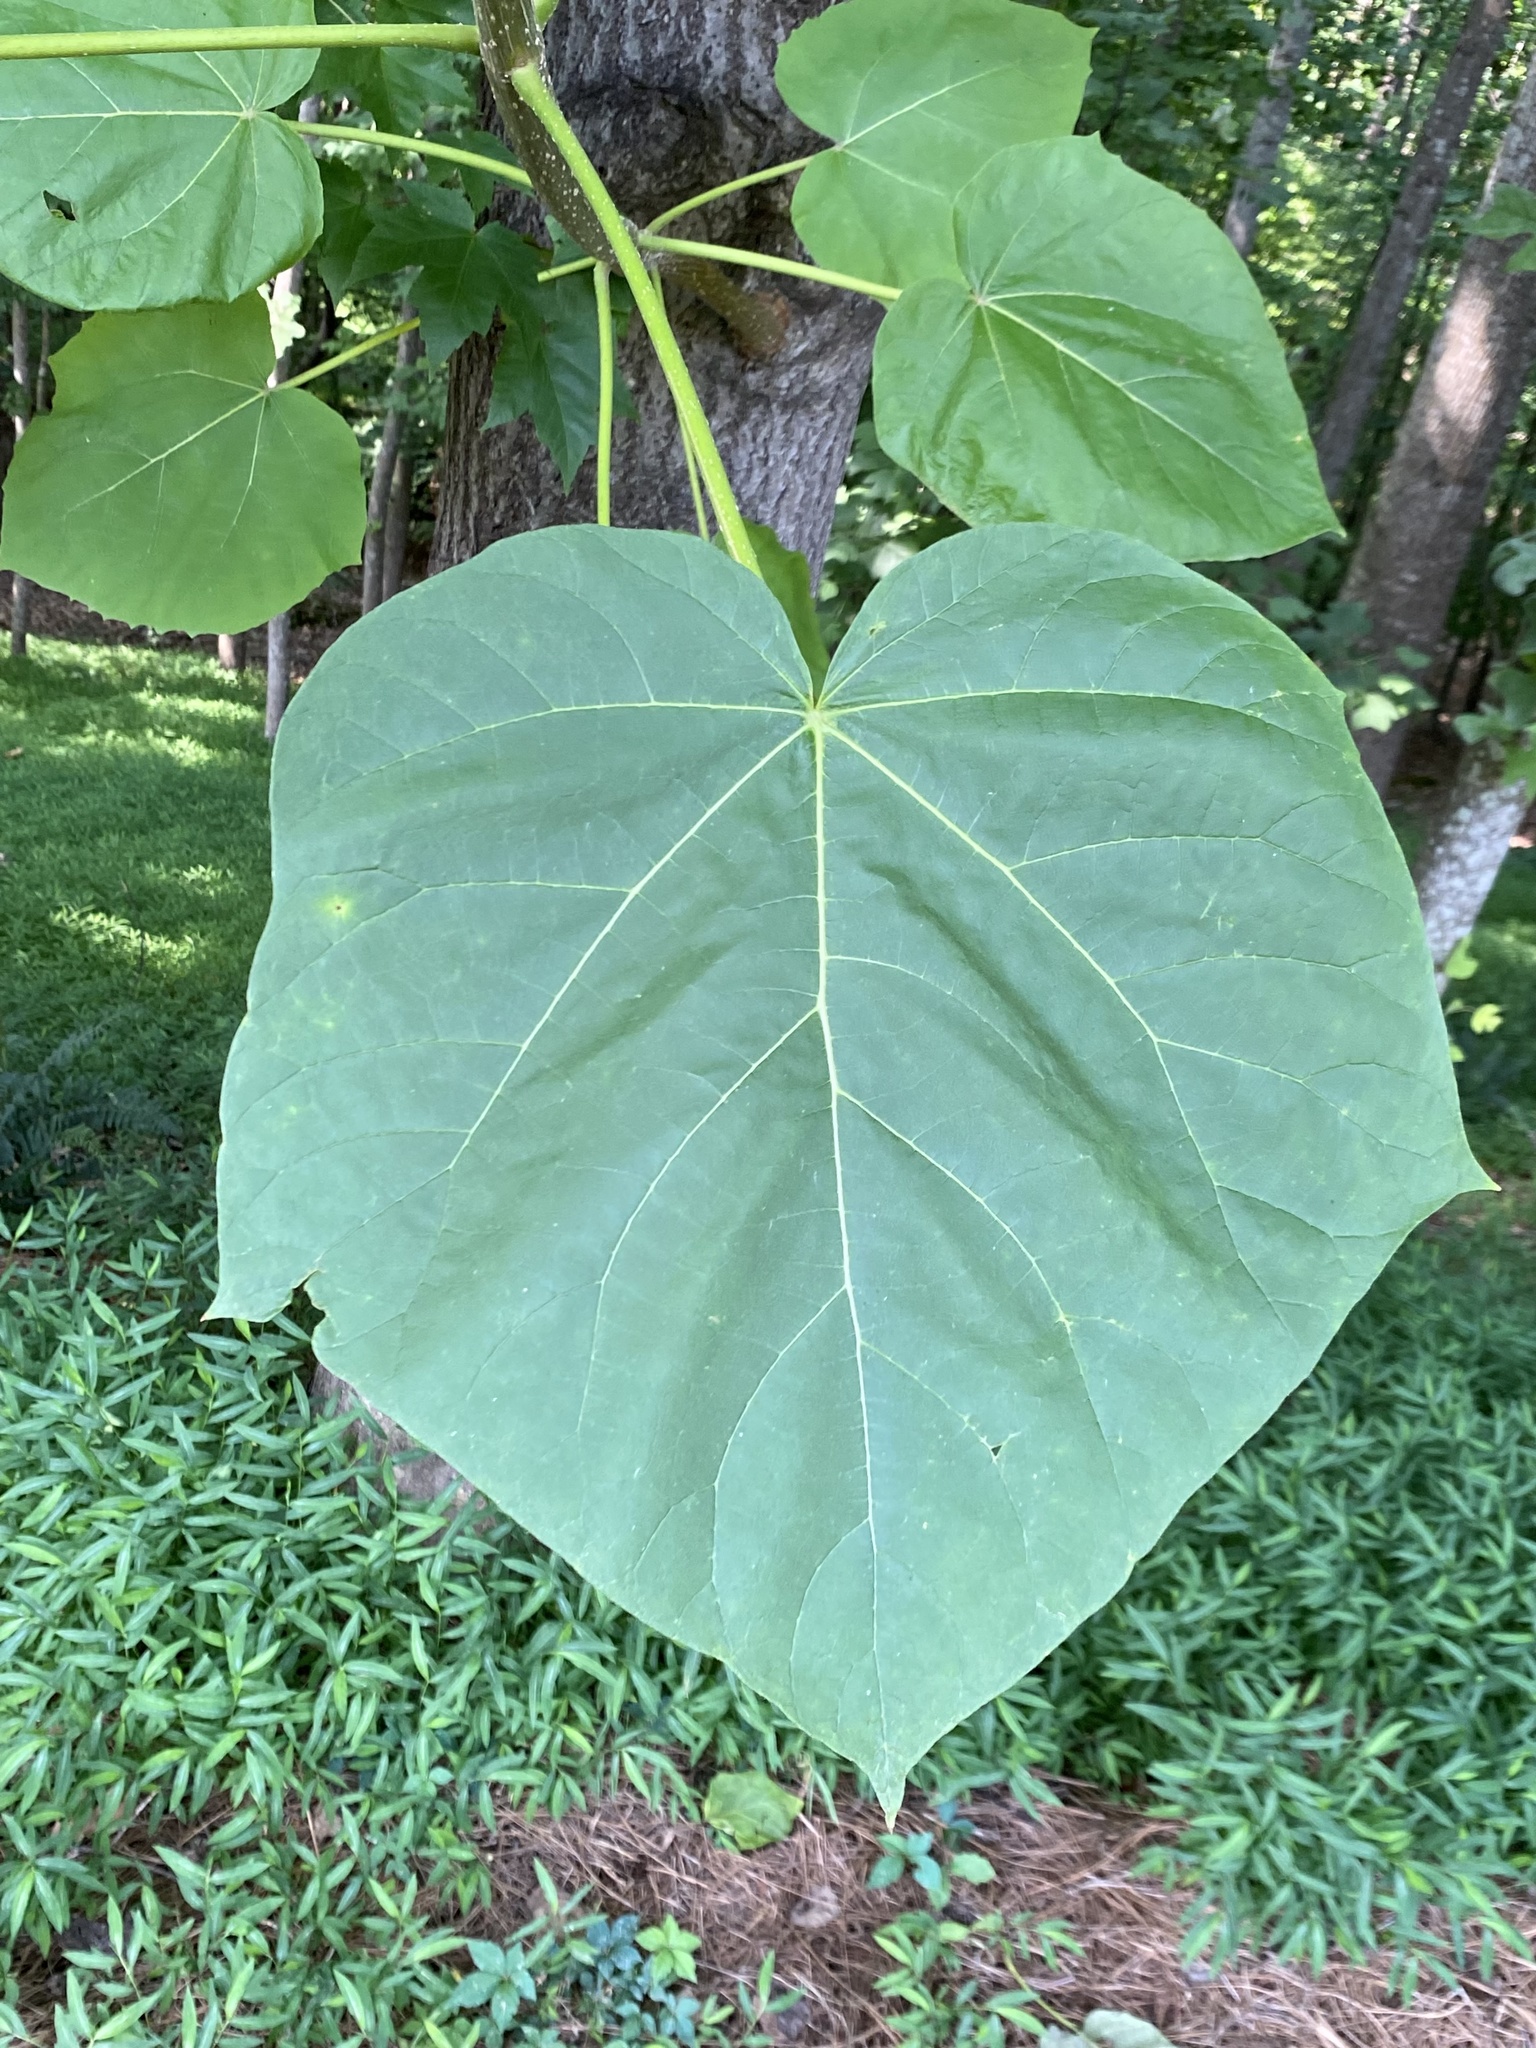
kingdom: Plantae
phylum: Tracheophyta
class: Magnoliopsida
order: Lamiales
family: Paulowniaceae
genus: Paulownia
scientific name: Paulownia tomentosa
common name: Foxglove-tree
